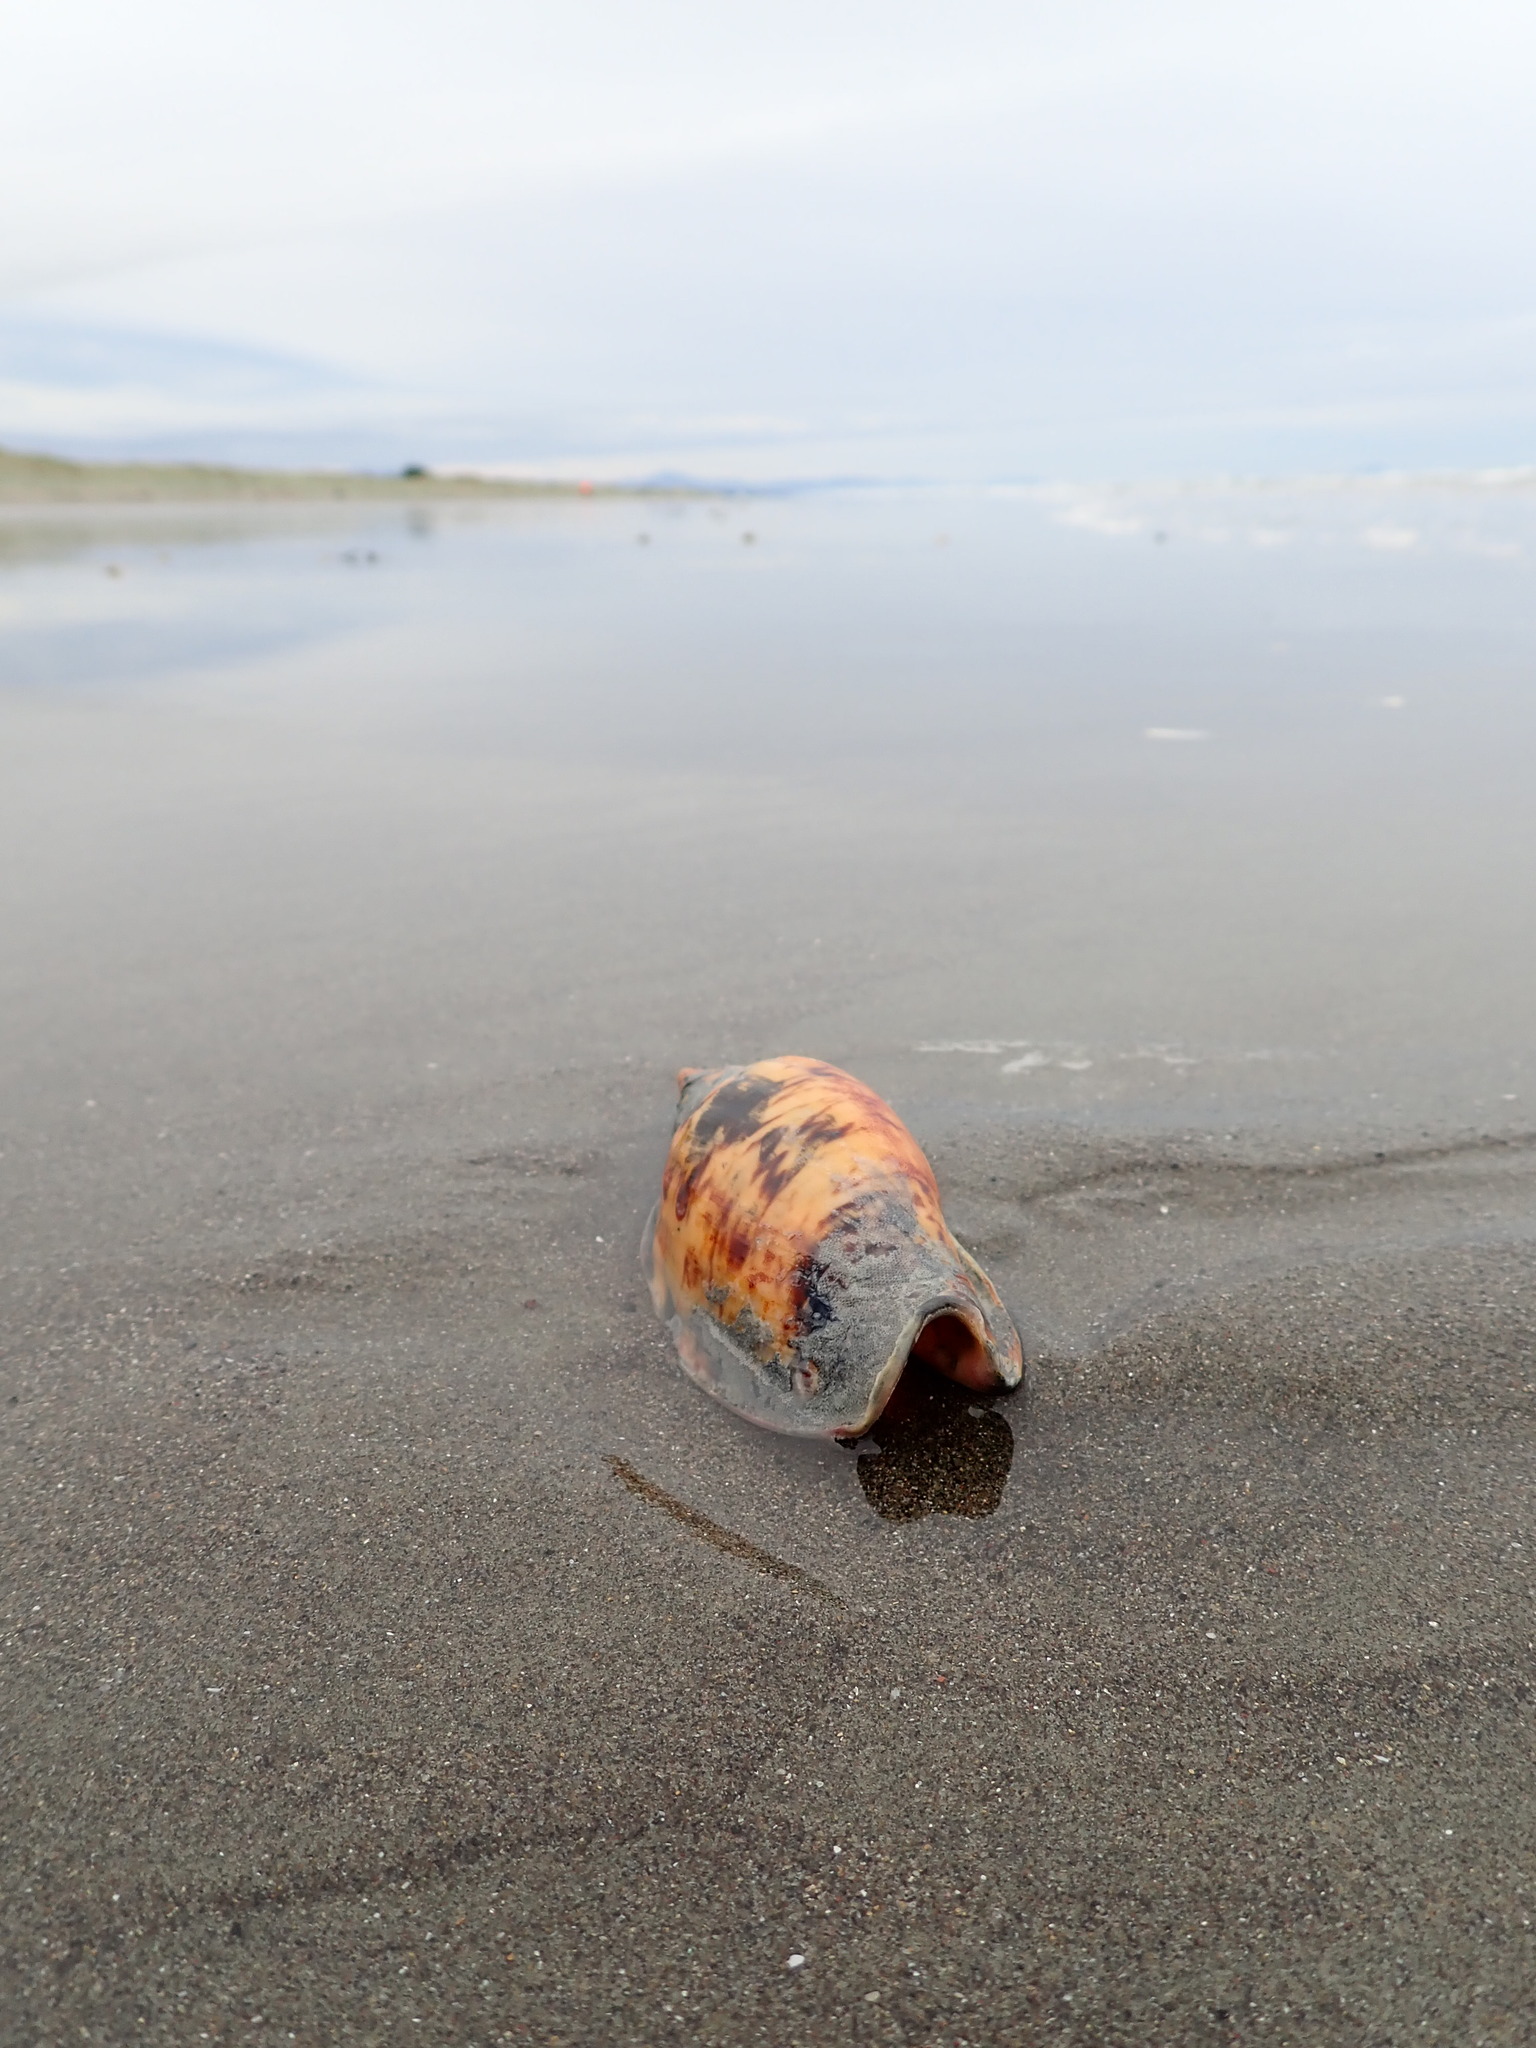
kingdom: Animalia
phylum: Mollusca
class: Gastropoda
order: Neogastropoda
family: Volutidae
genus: Alcithoe
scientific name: Alcithoe arabica
